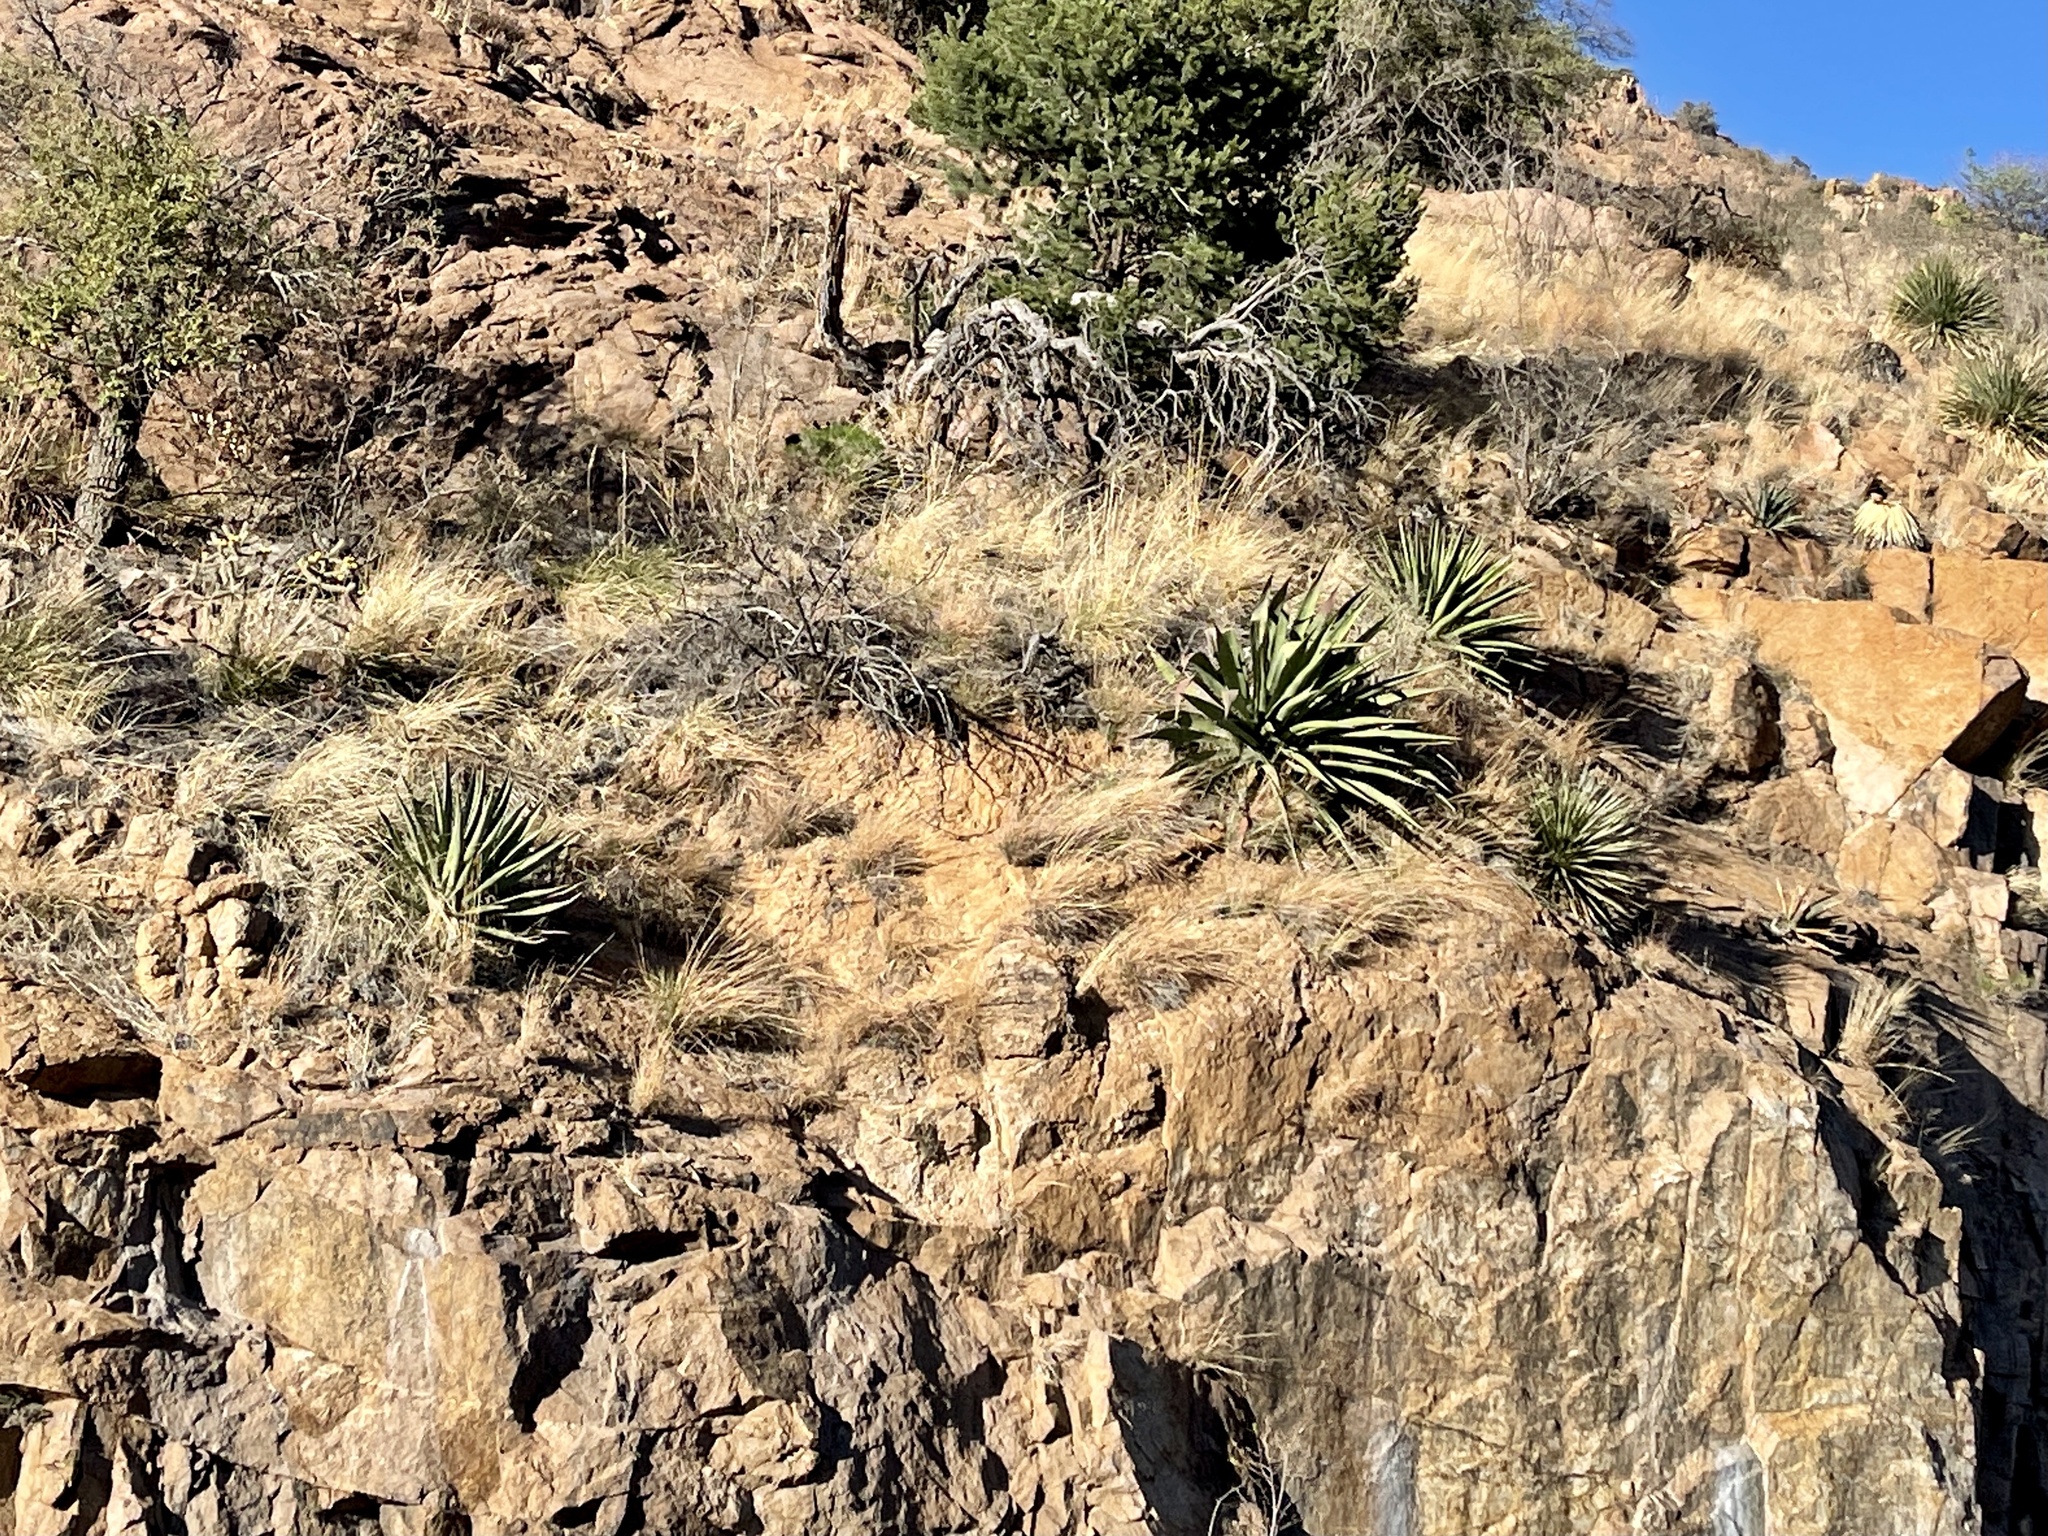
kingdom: Plantae
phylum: Tracheophyta
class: Liliopsida
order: Asparagales
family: Asparagaceae
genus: Agave
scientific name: Agave palmeri
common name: Palmer agave
